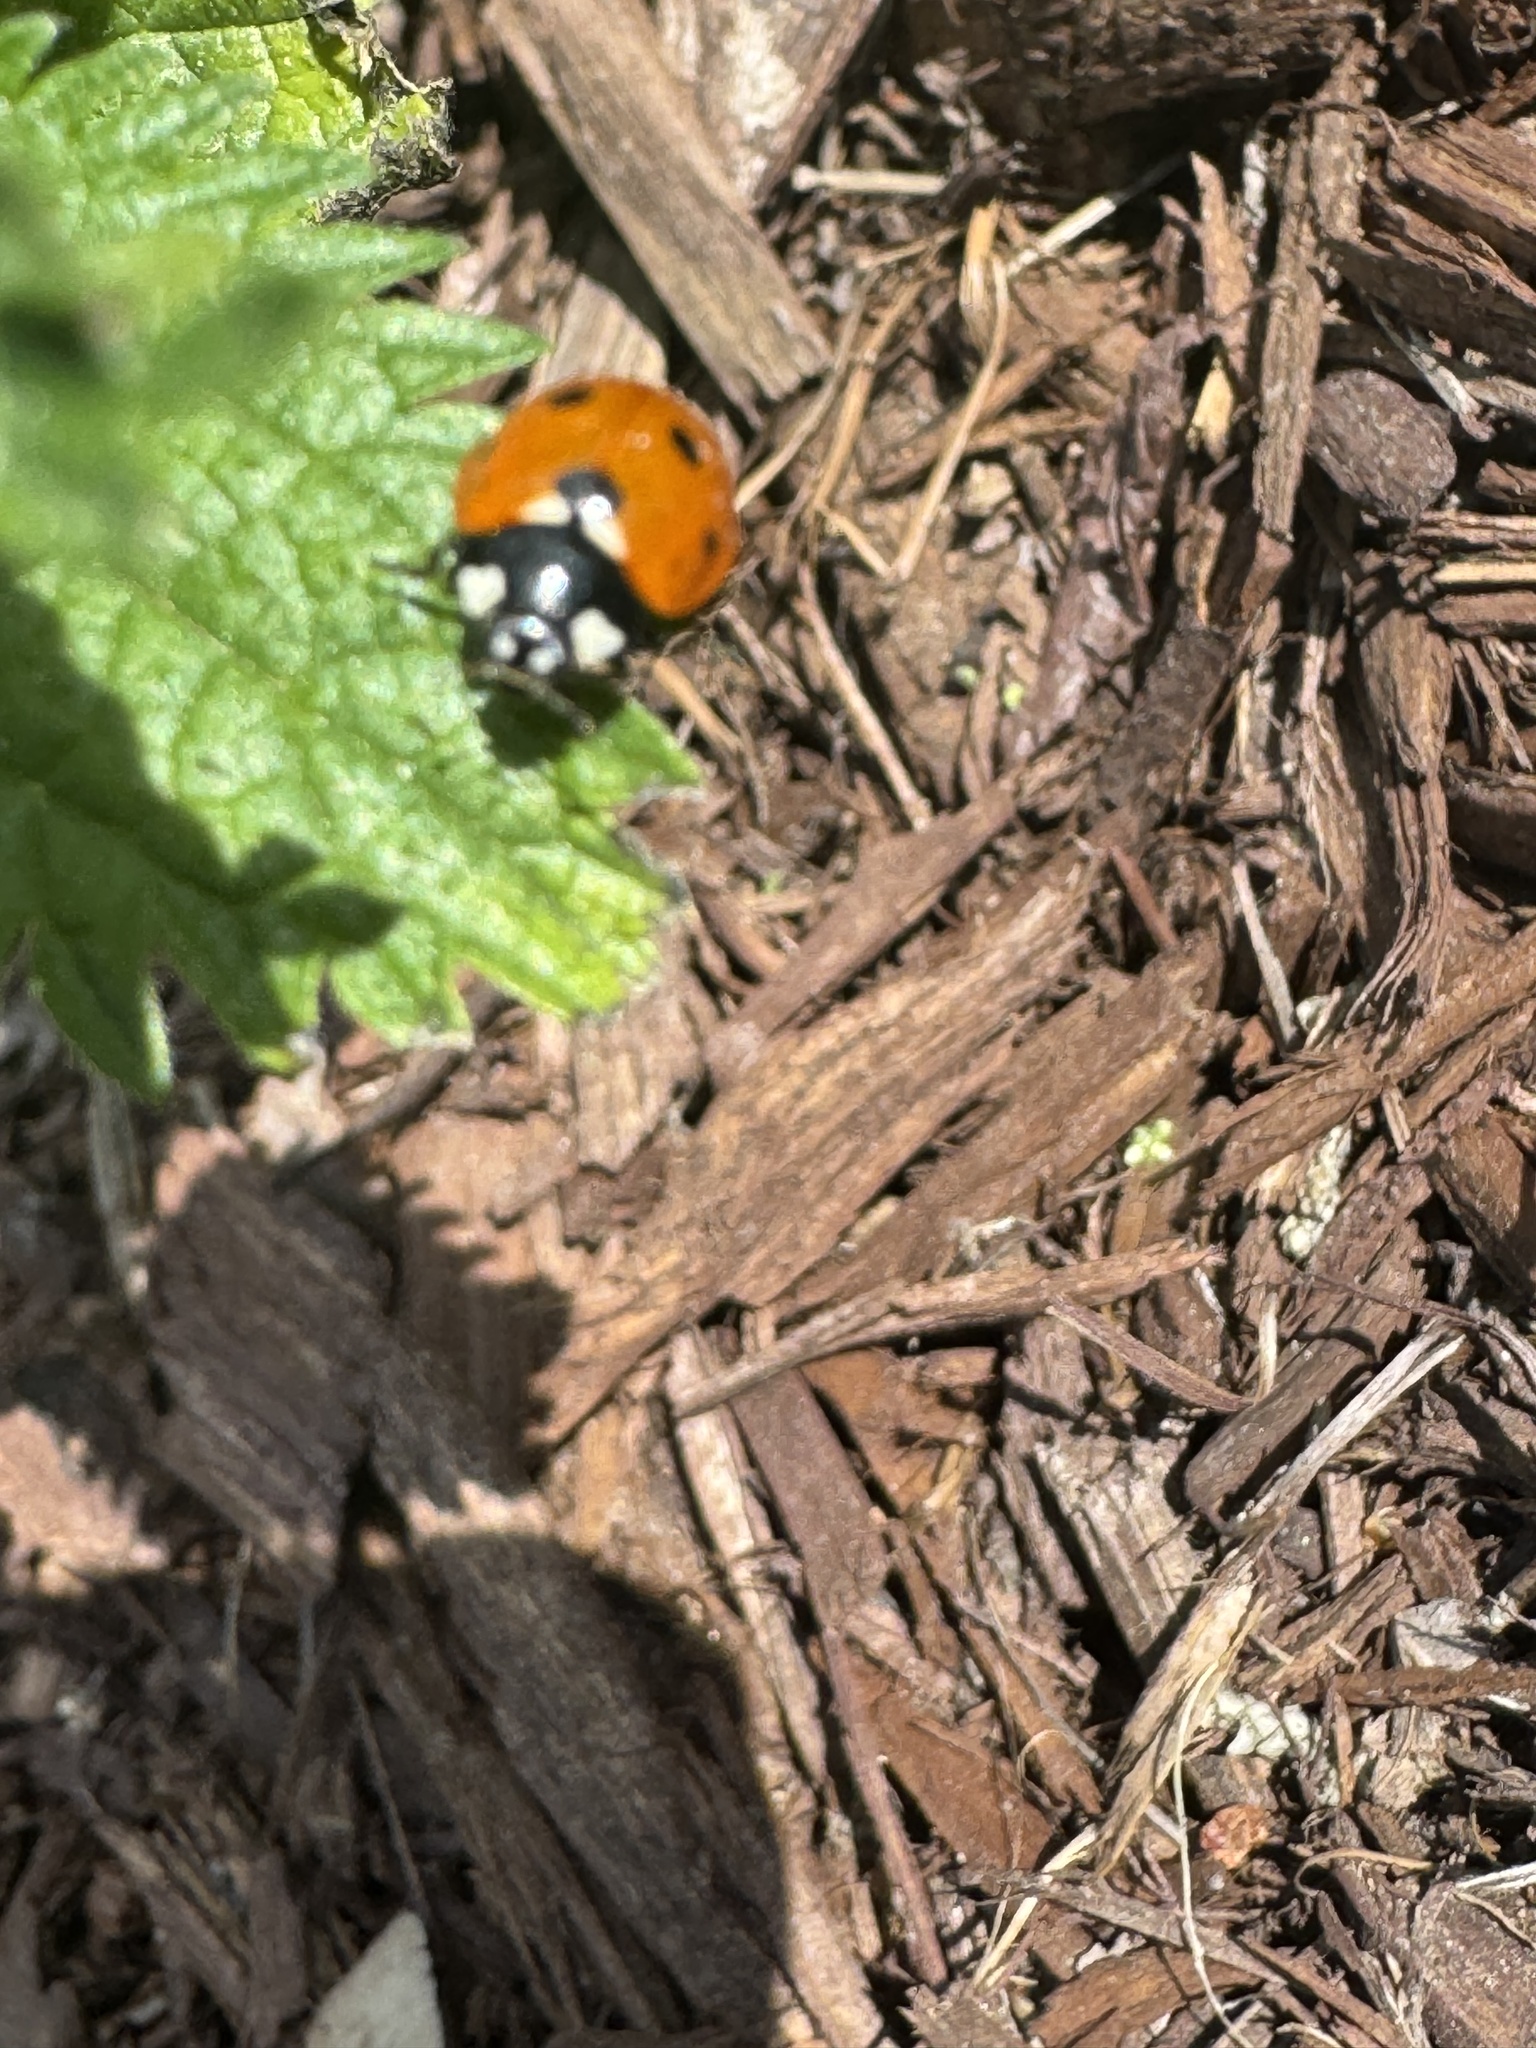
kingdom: Animalia
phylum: Arthropoda
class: Insecta
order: Coleoptera
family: Coccinellidae
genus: Coccinella
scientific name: Coccinella septempunctata
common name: Sevenspotted lady beetle
